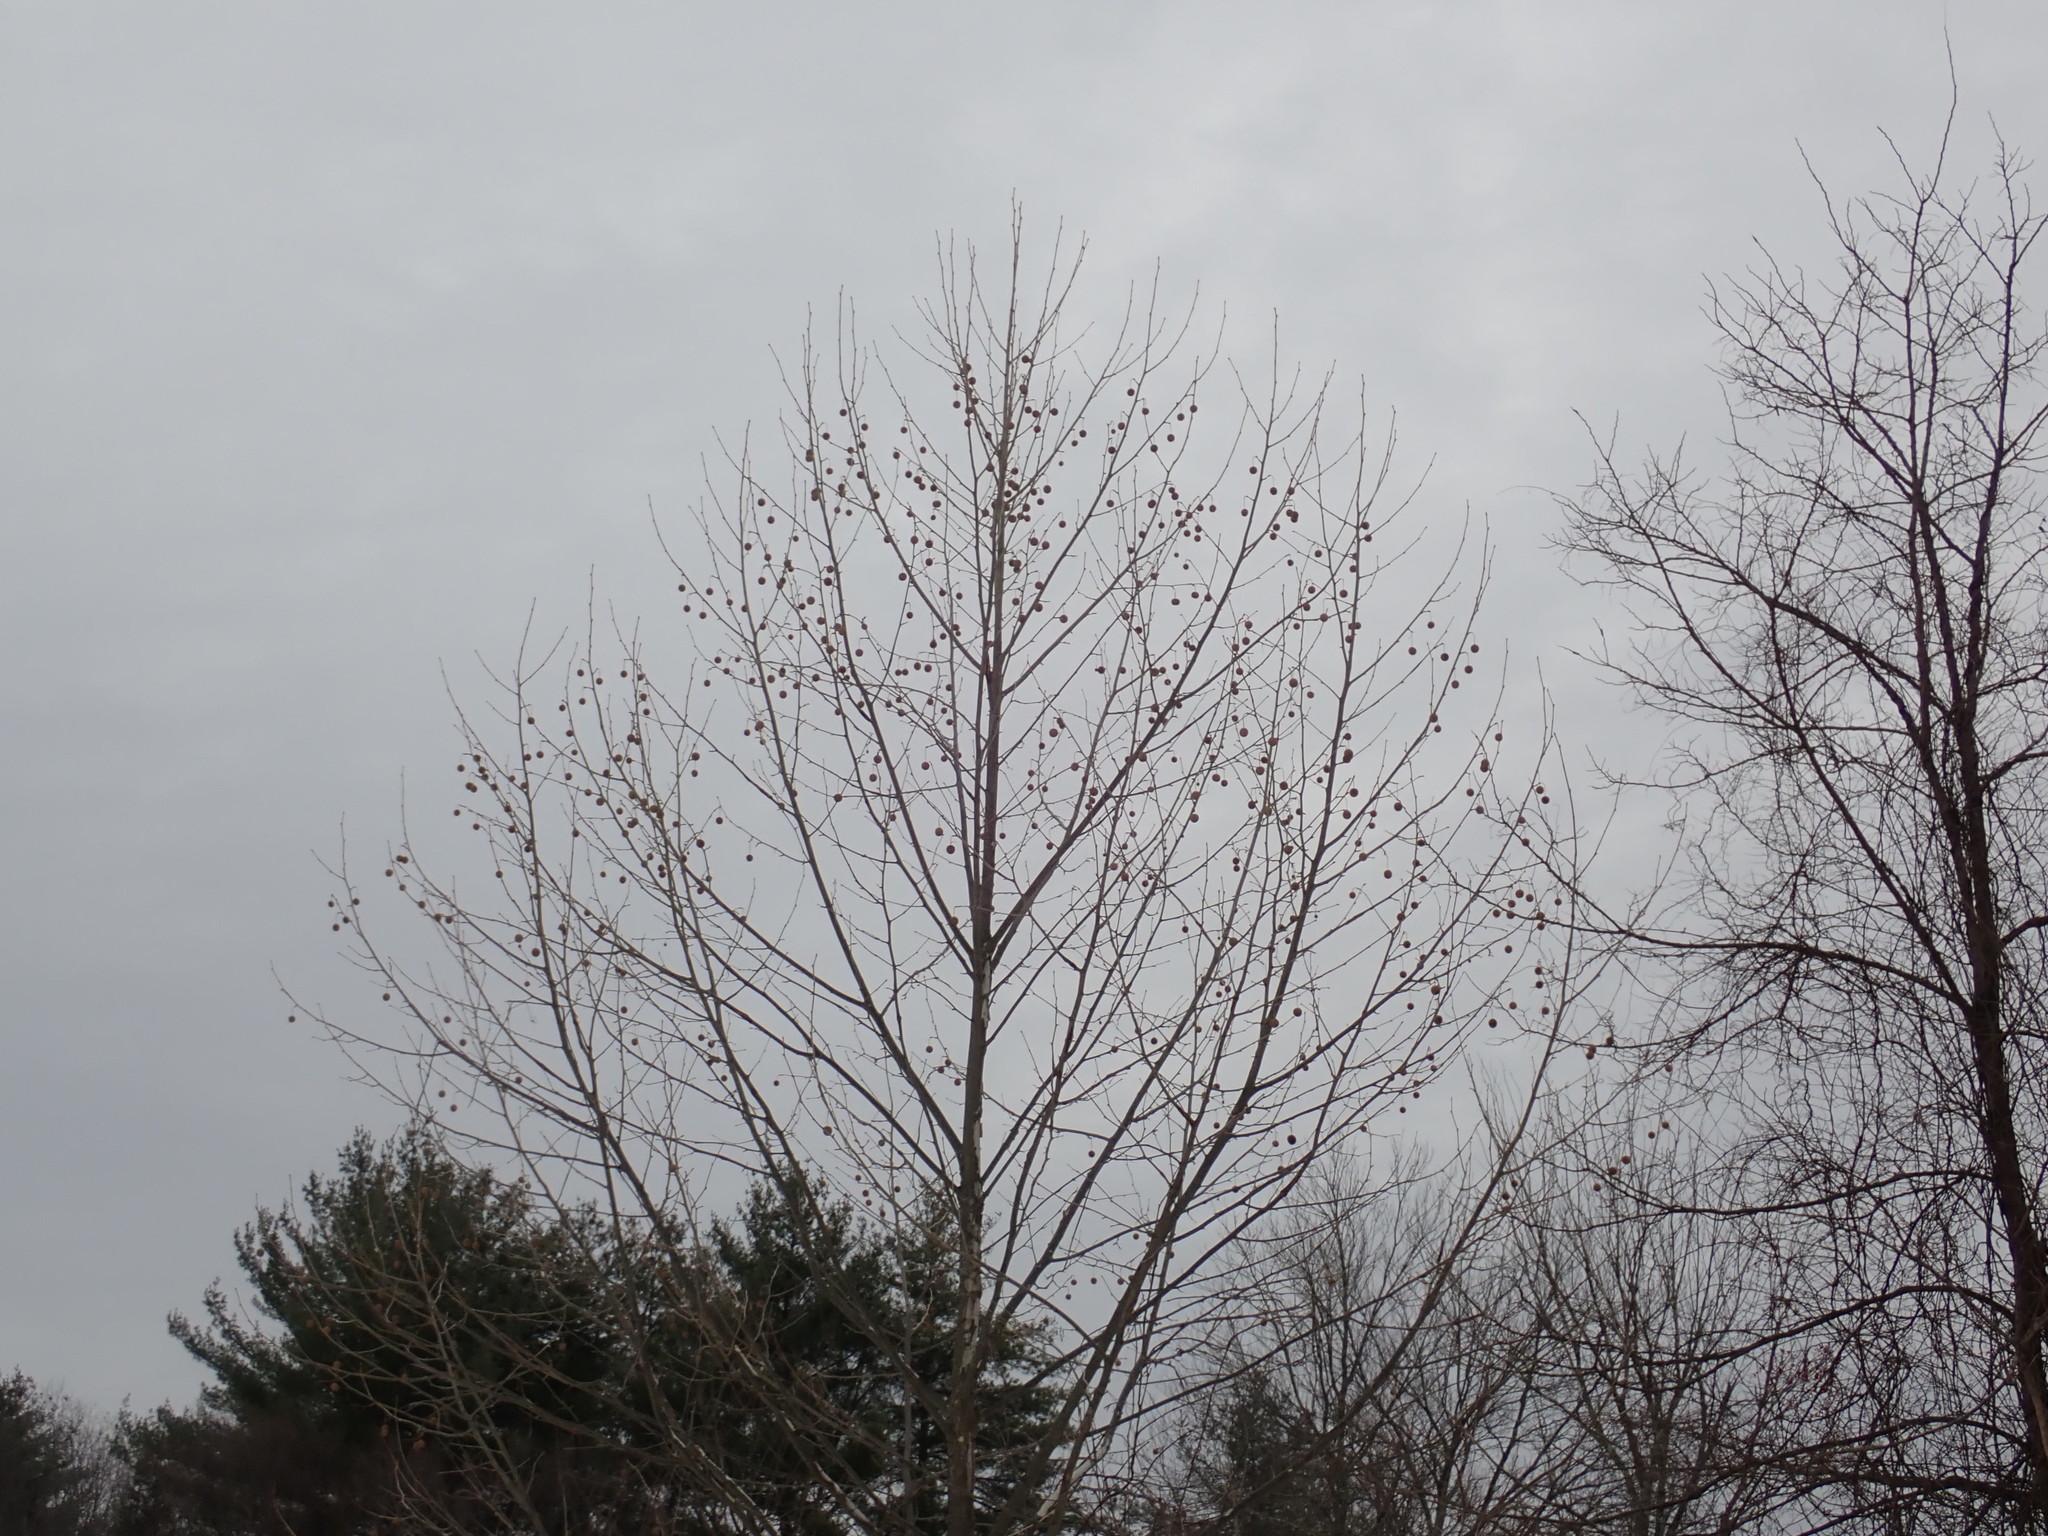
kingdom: Plantae
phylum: Tracheophyta
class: Magnoliopsida
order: Proteales
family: Platanaceae
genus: Platanus
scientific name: Platanus occidentalis
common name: American sycamore
